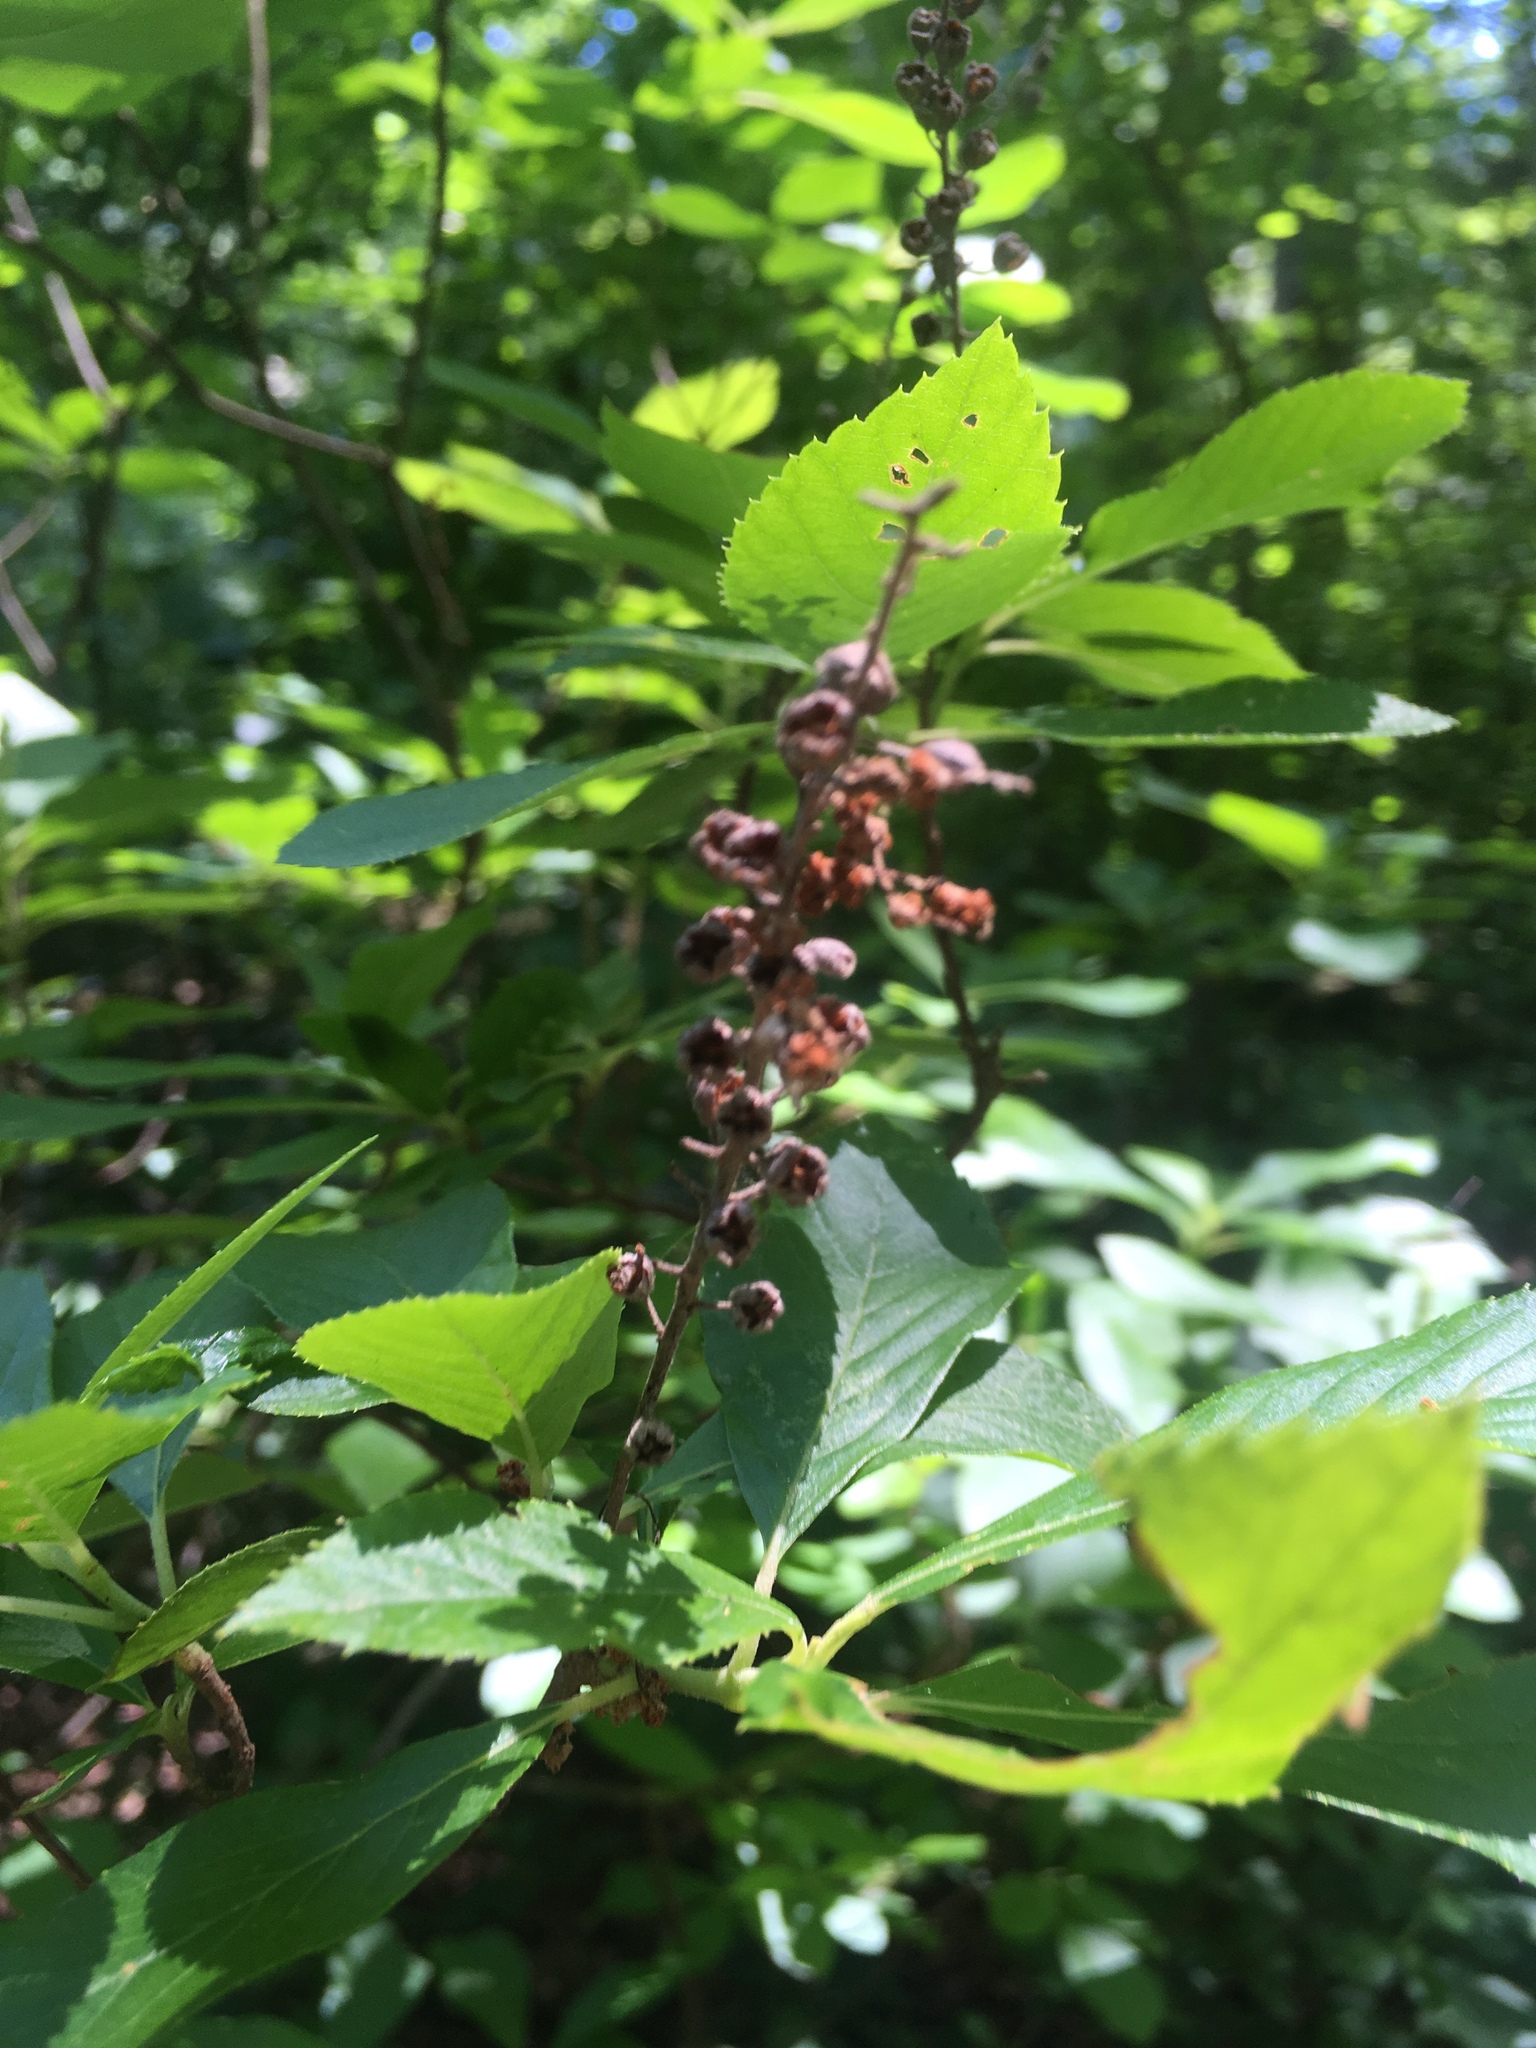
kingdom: Plantae
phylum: Tracheophyta
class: Magnoliopsida
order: Ericales
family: Clethraceae
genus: Clethra
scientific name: Clethra alnifolia
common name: Sweet pepperbush
